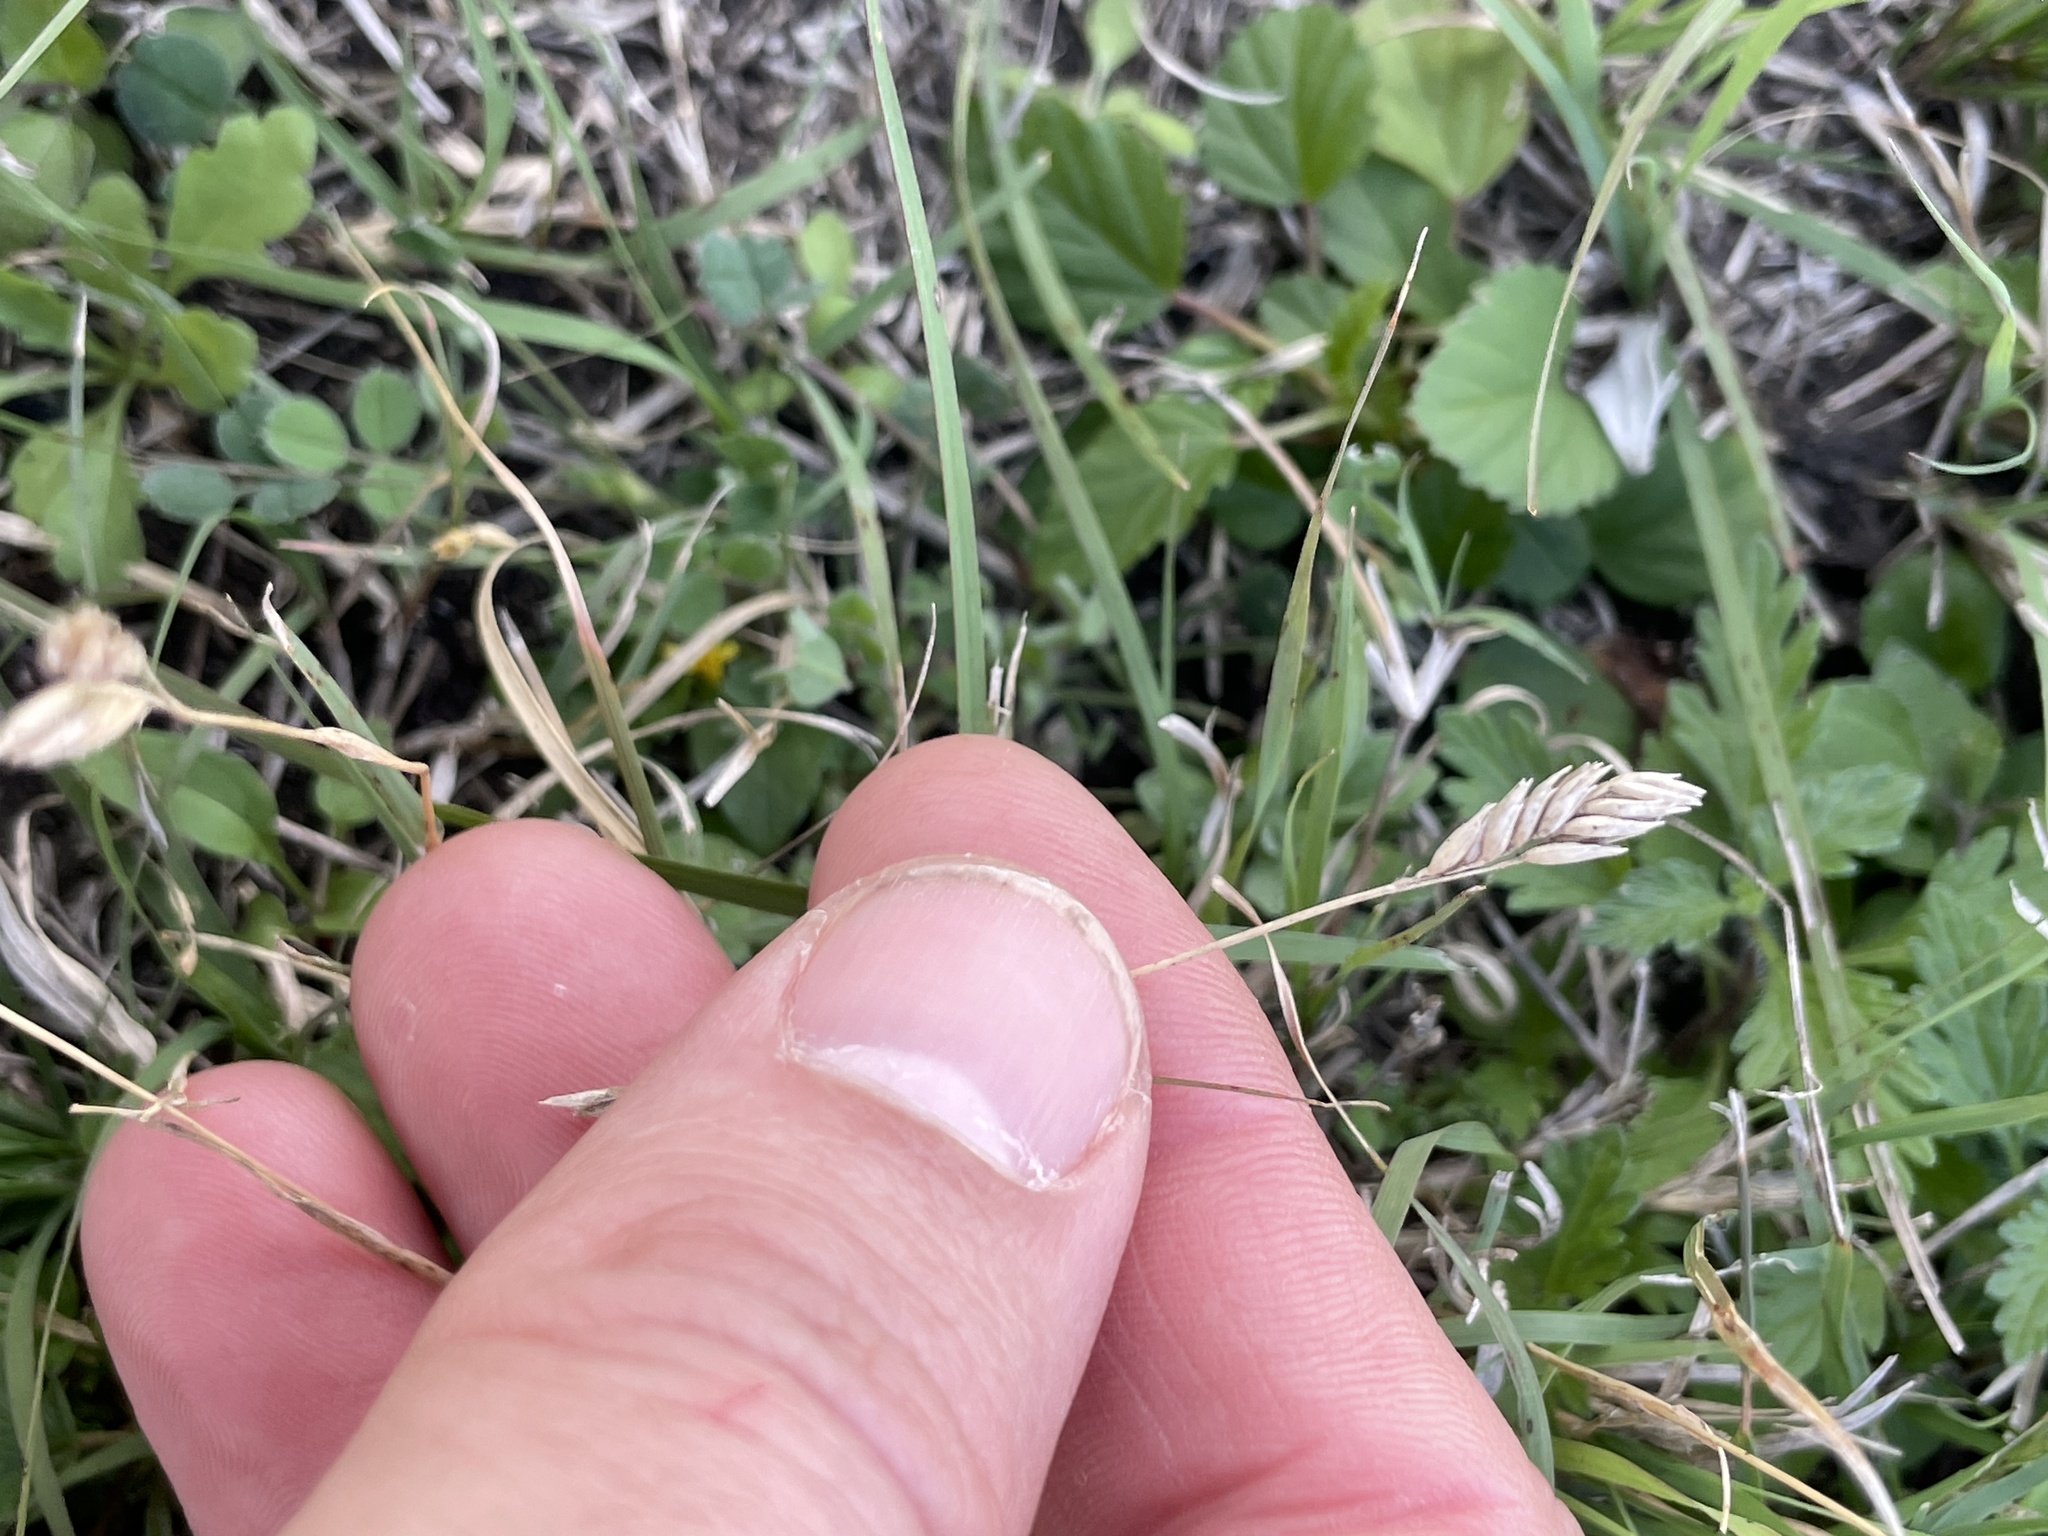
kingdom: Plantae
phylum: Tracheophyta
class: Liliopsida
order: Poales
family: Poaceae
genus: Bouteloua
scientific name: Bouteloua dactyloides
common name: Buffalo grass
